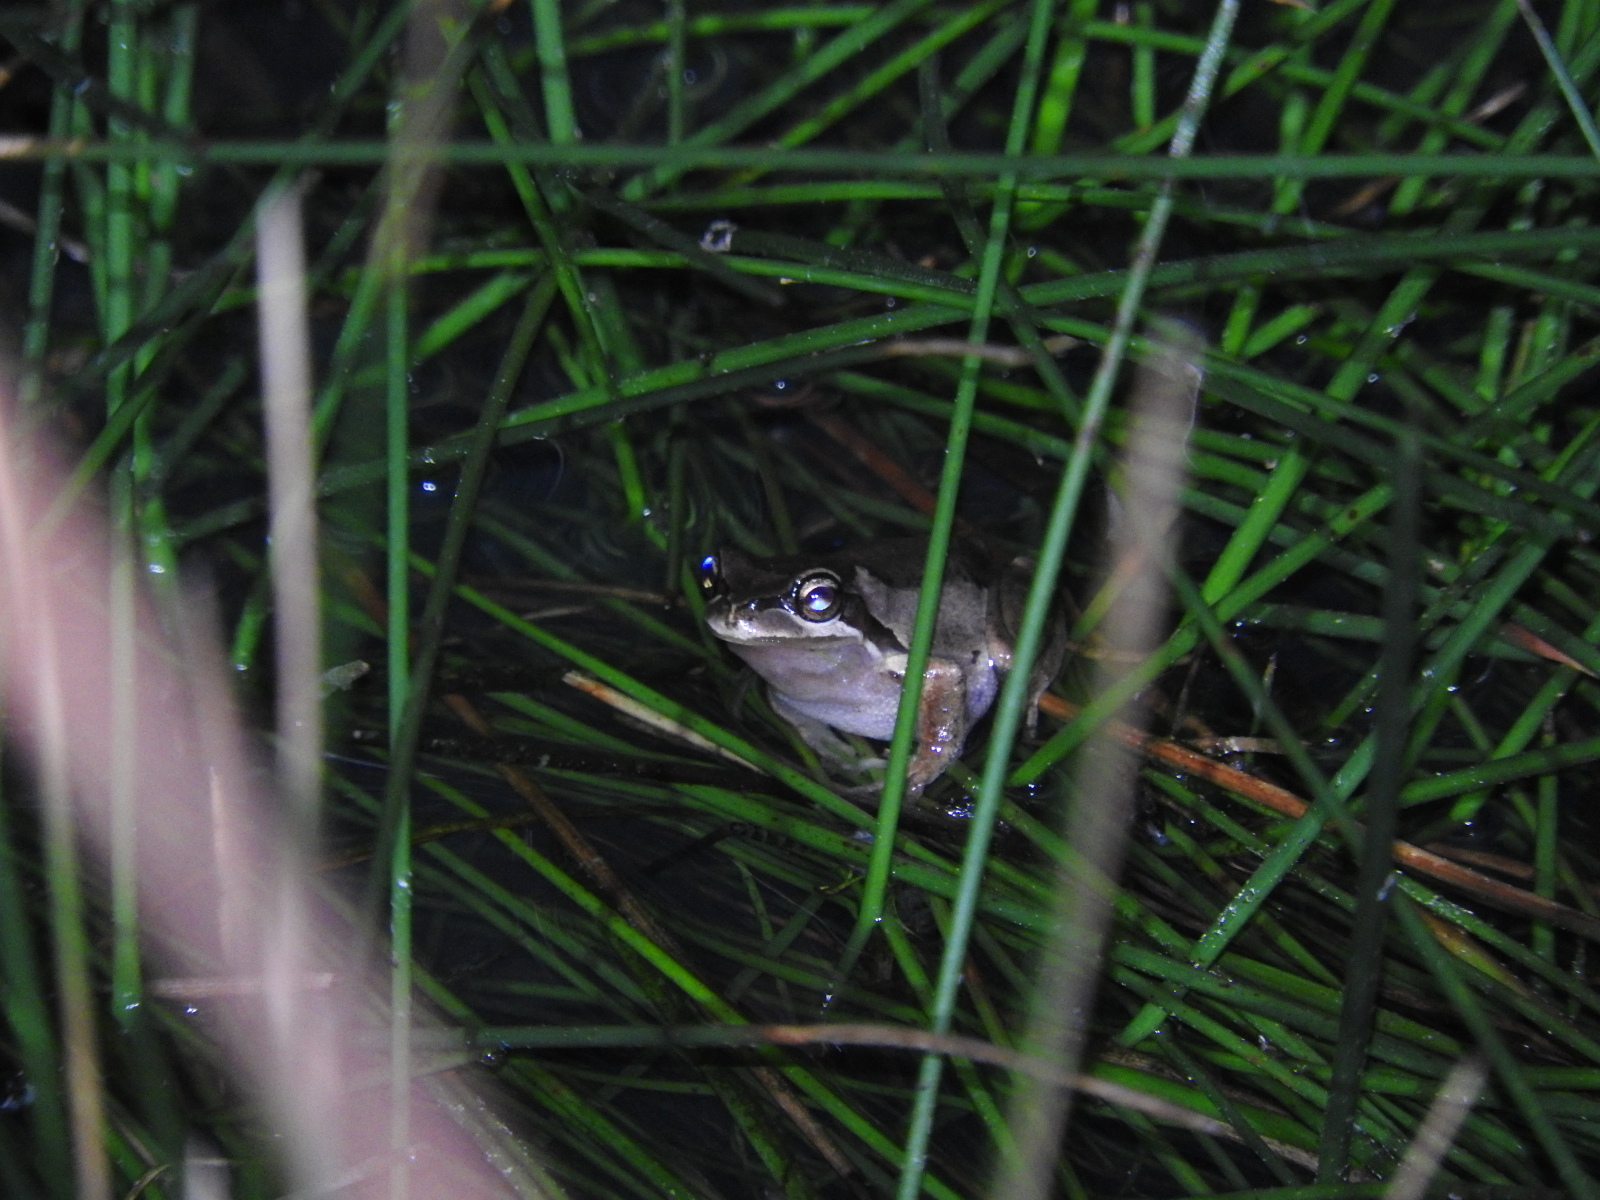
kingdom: Animalia
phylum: Chordata
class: Amphibia
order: Anura
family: Pelodryadidae
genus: Litoria
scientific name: Litoria ewingii
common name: Southern brown tree frog
